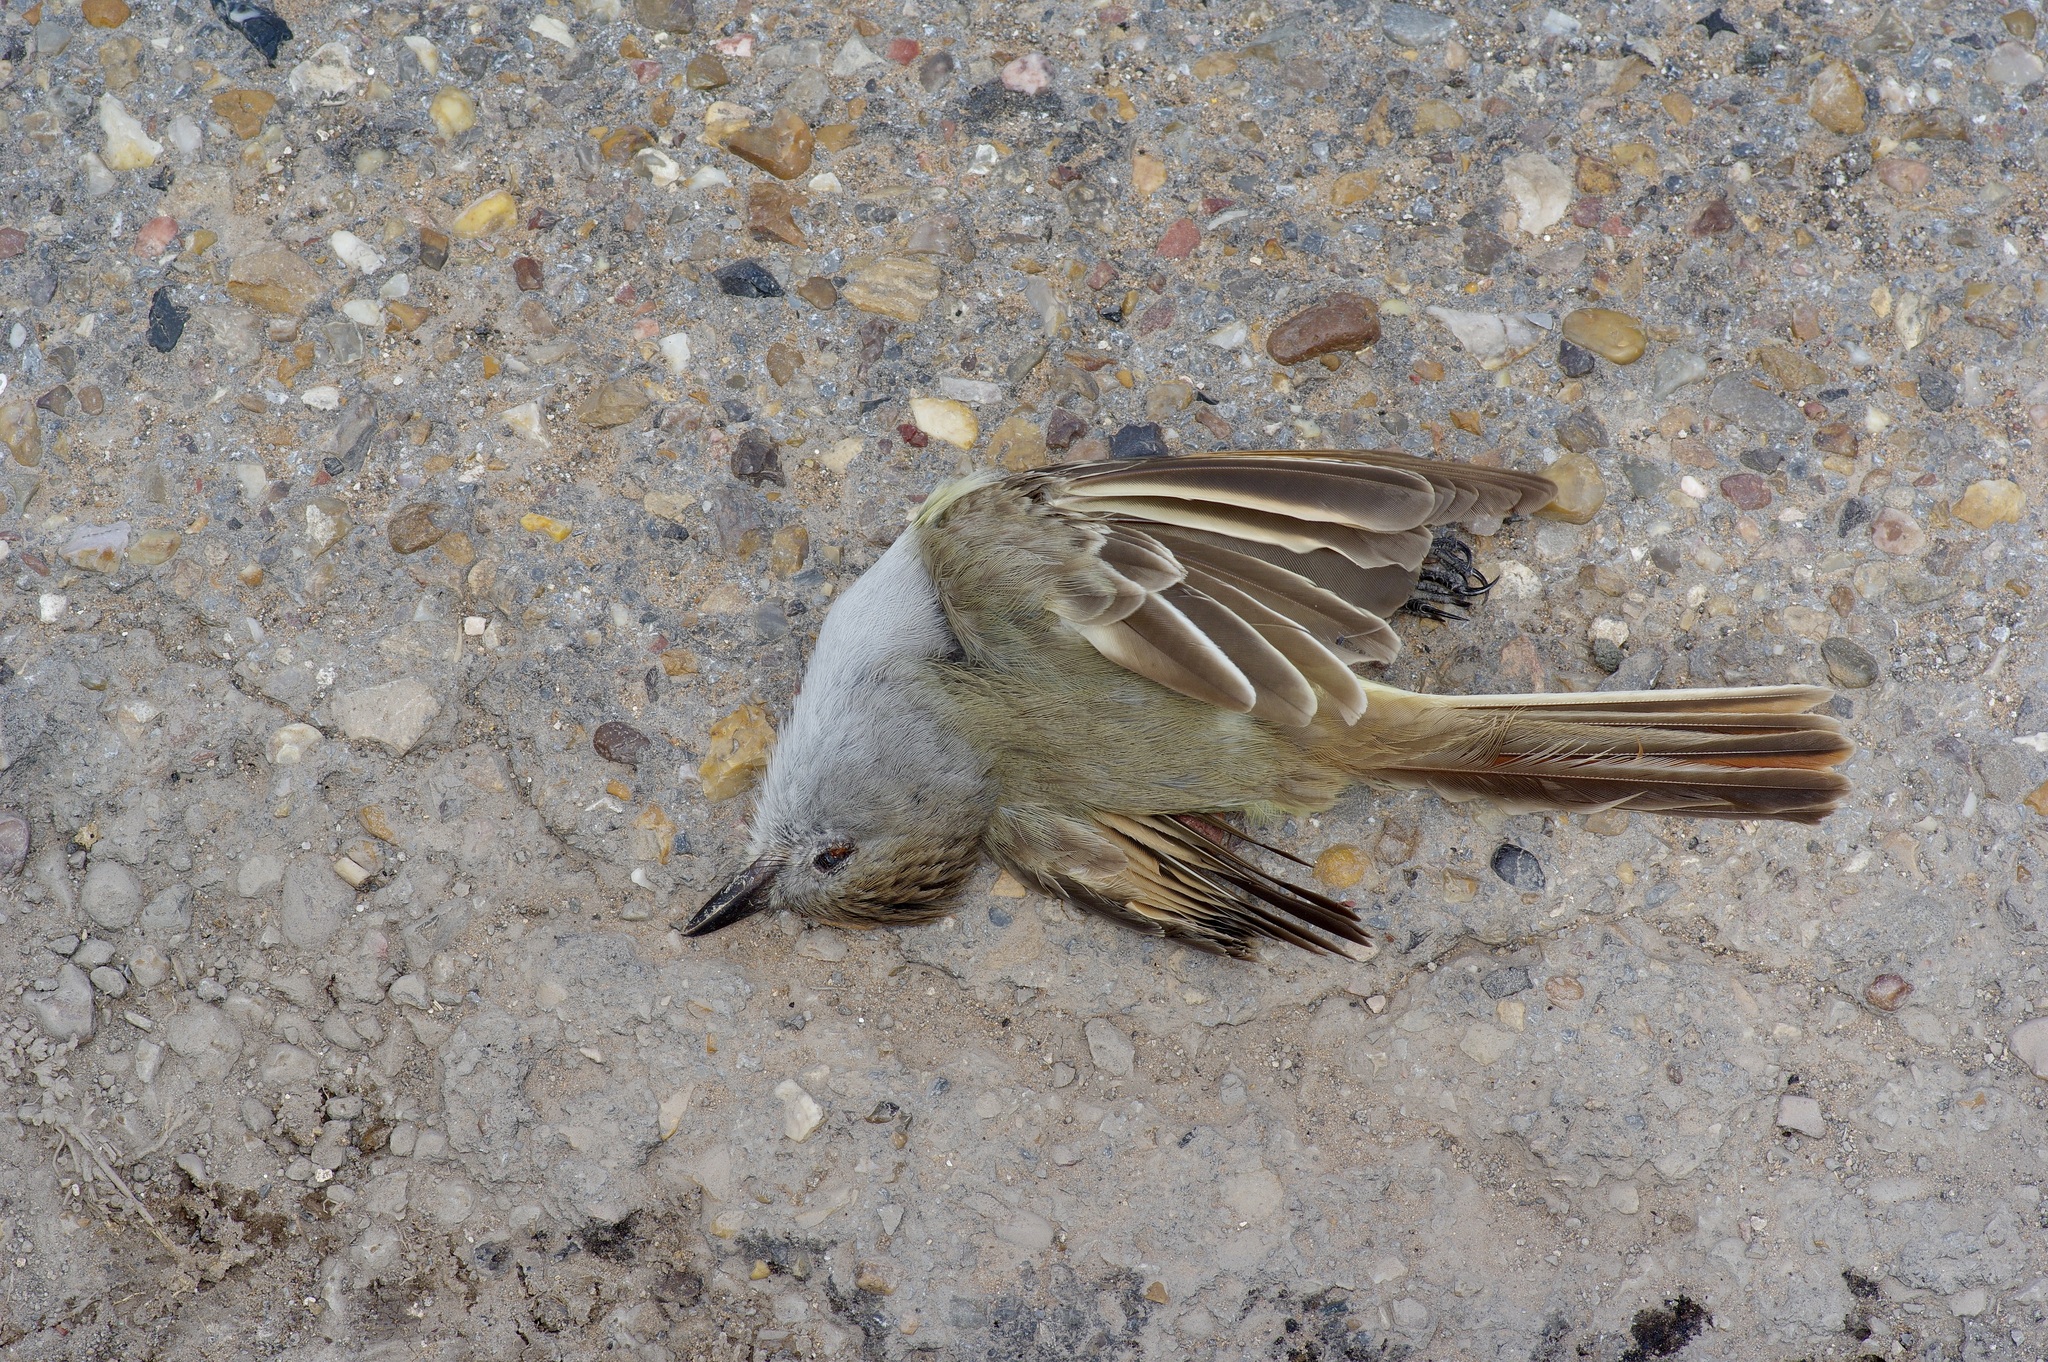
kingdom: Animalia
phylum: Chordata
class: Aves
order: Passeriformes
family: Tyrannidae
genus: Myiarchus
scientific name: Myiarchus cinerascens
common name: Ash-throated flycatcher
